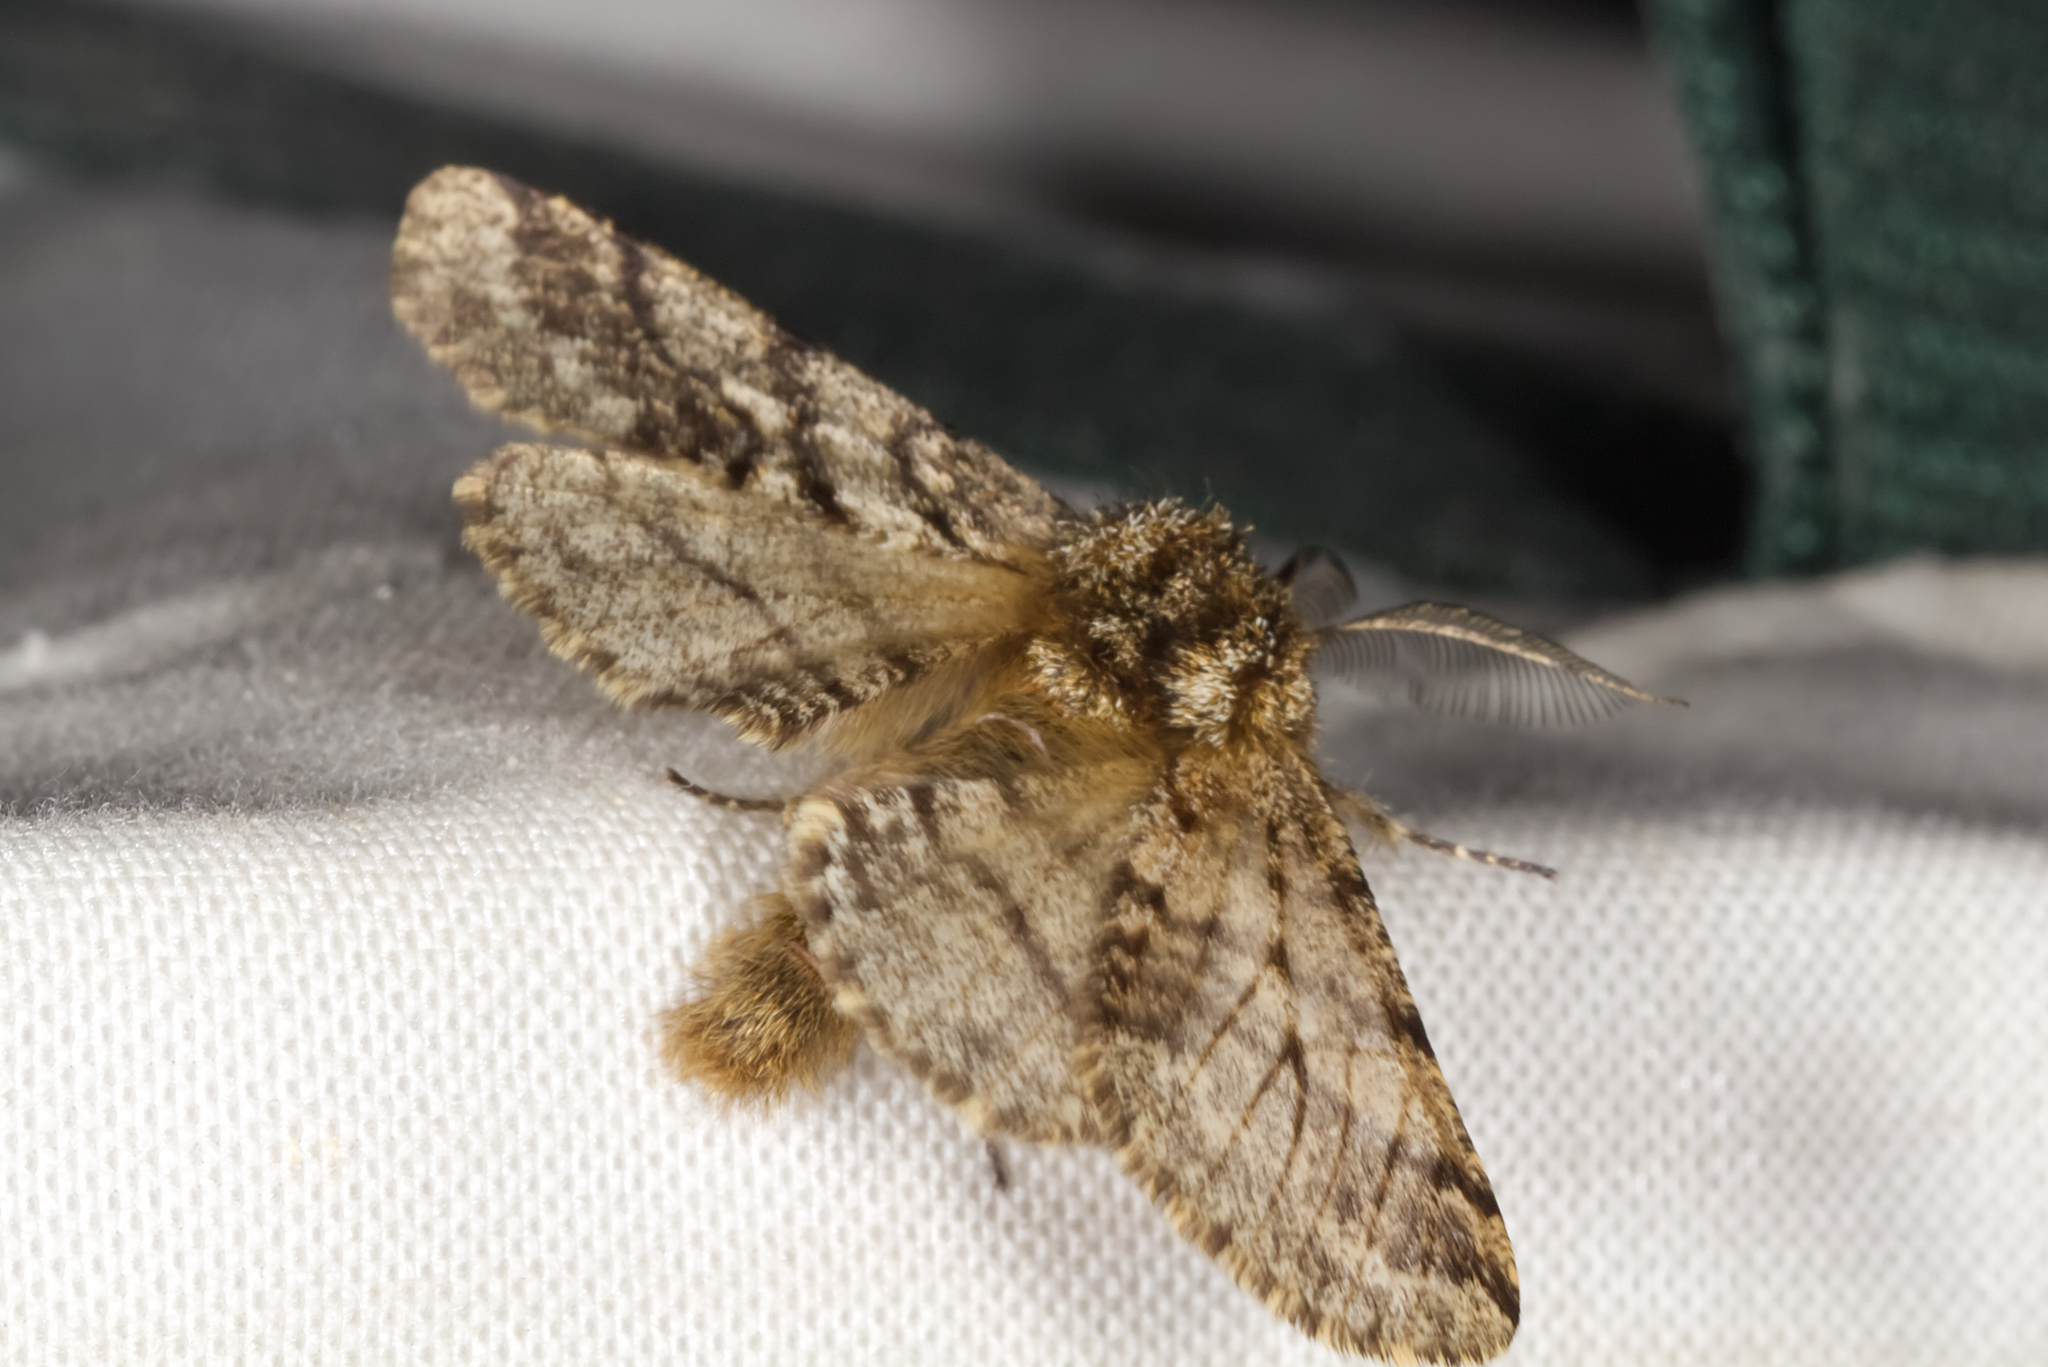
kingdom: Animalia
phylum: Arthropoda
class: Insecta
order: Lepidoptera
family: Geometridae
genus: Lycia
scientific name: Lycia hirtaria
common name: Brindled beauty
